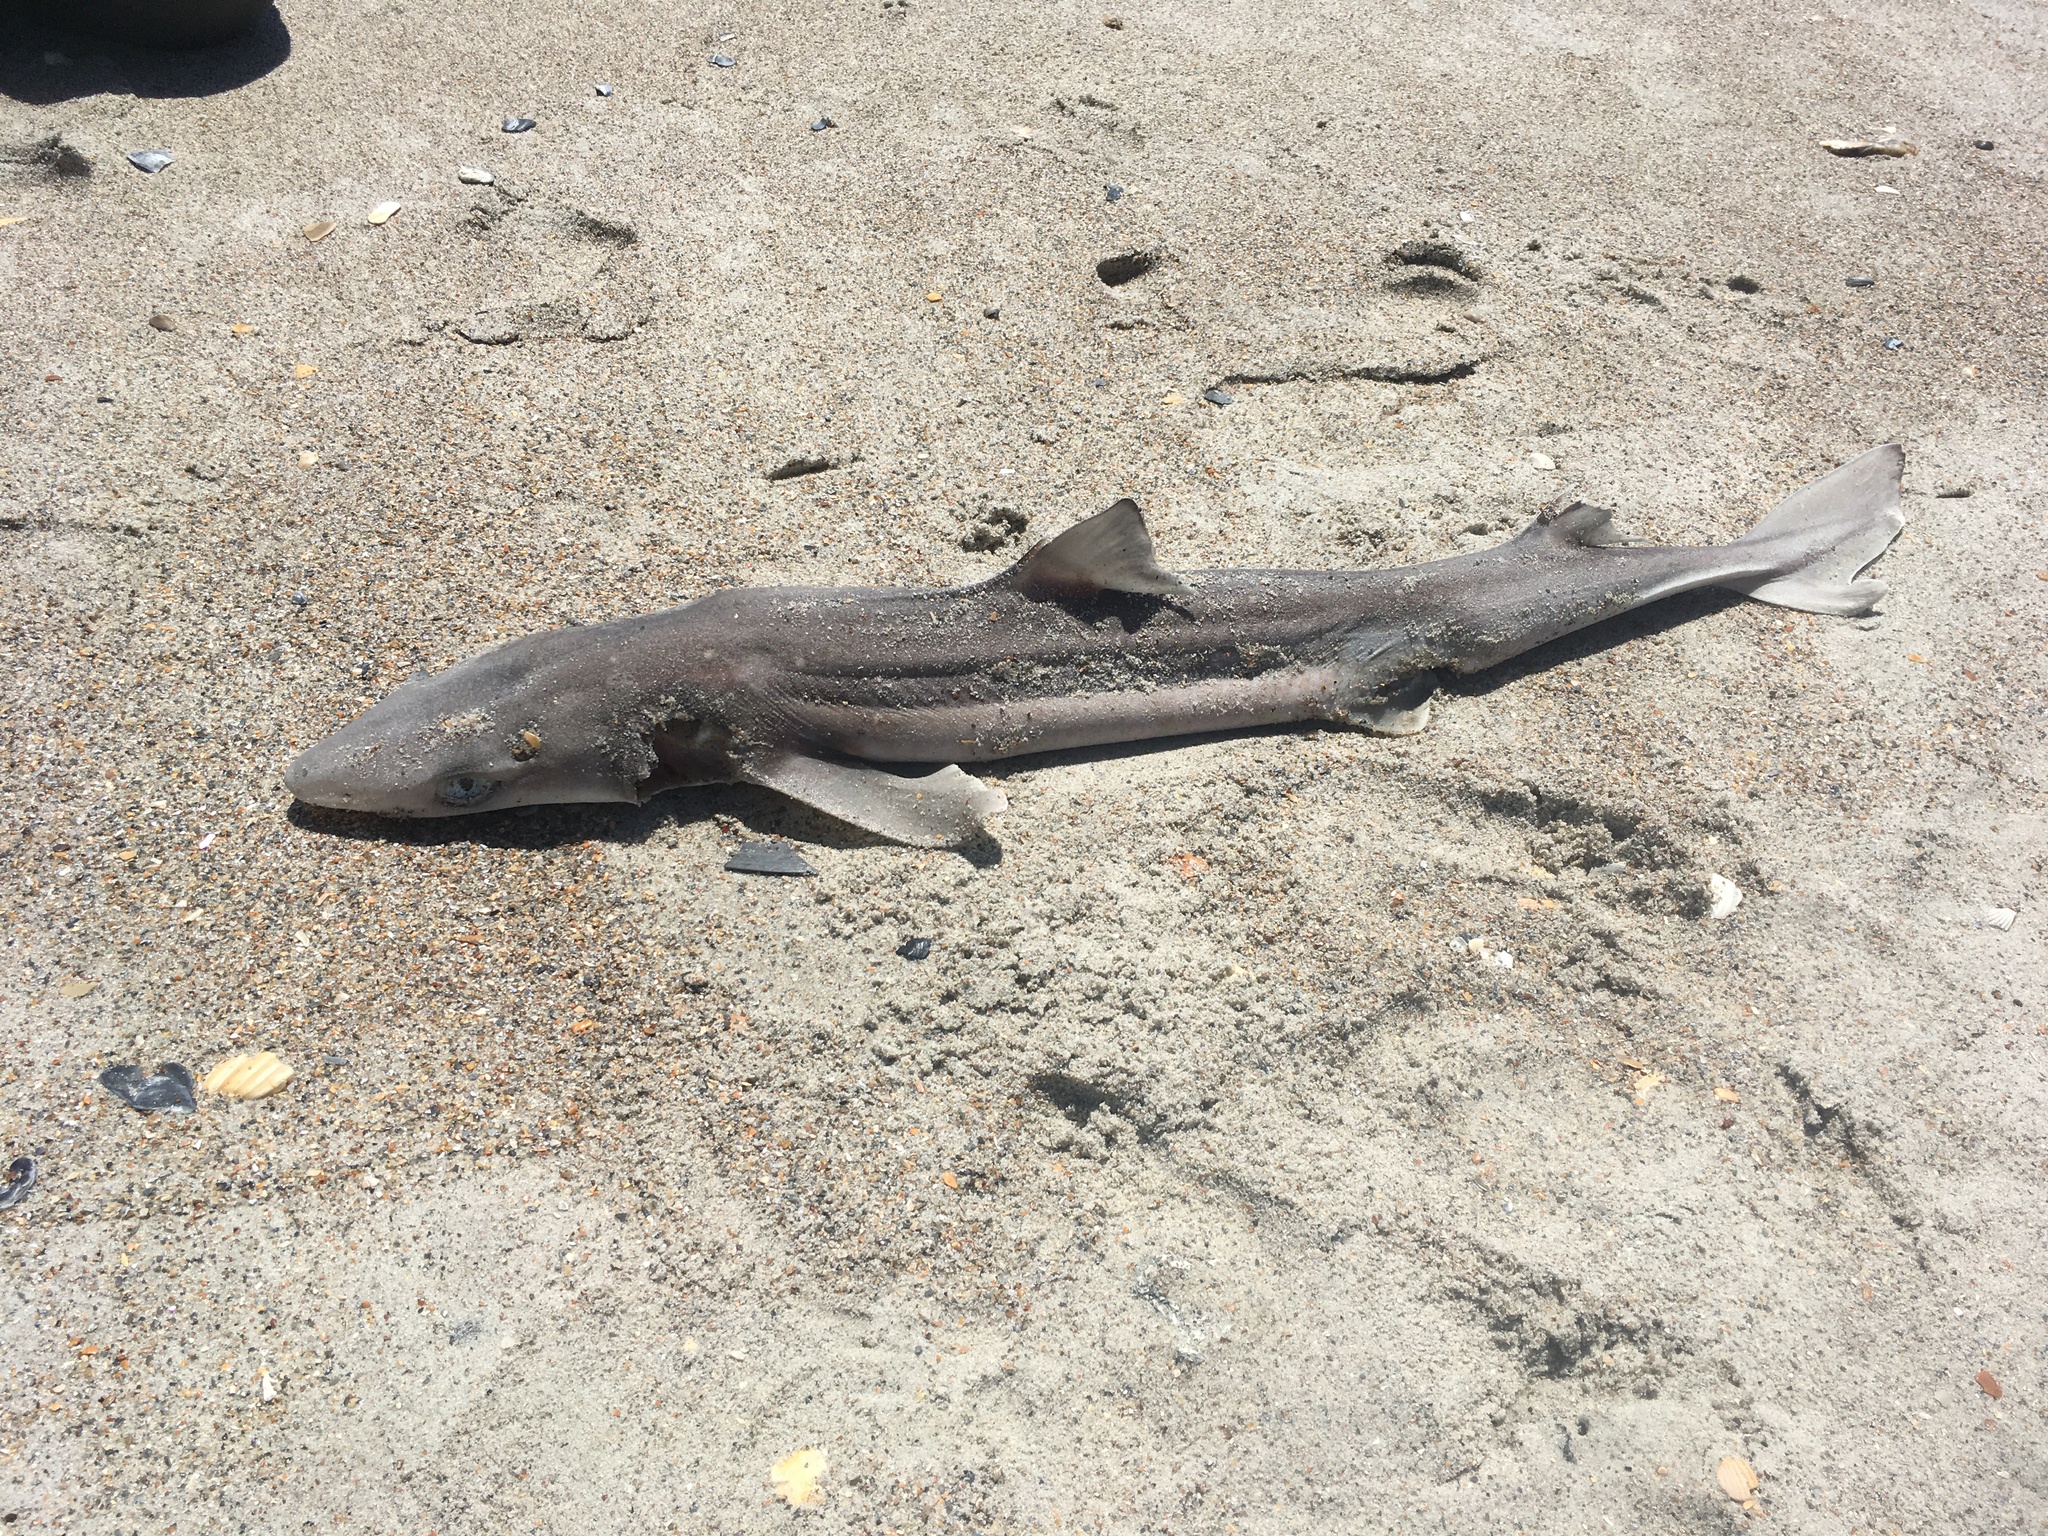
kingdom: Animalia
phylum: Chordata
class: Elasmobranchii
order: Squaliformes
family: Squalidae
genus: Squalus
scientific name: Squalus acanthias
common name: Spurdog
